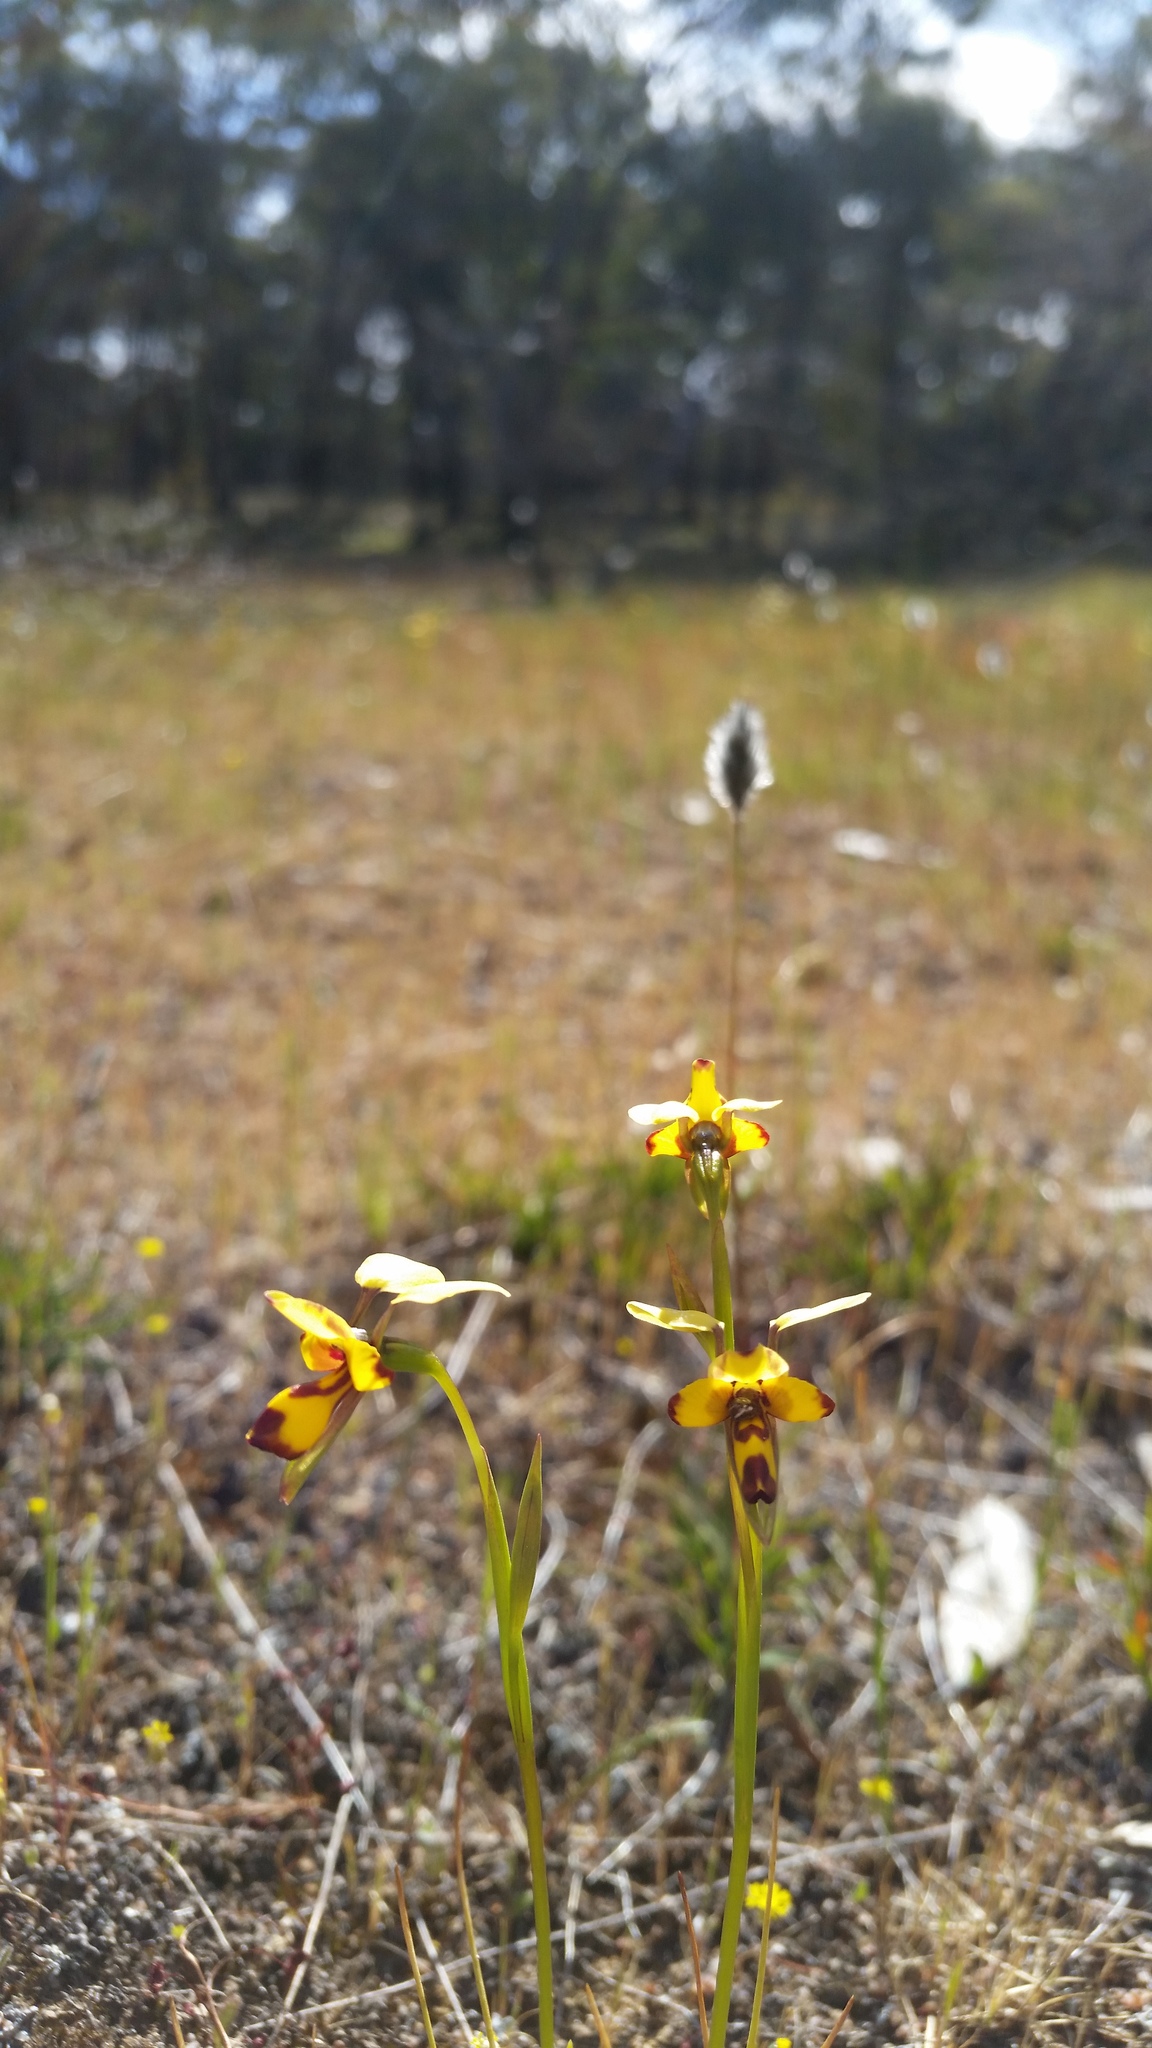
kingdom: Plantae
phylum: Tracheophyta
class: Liliopsida
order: Asparagales
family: Orchidaceae
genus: Diuris
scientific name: Diuris decrementum
